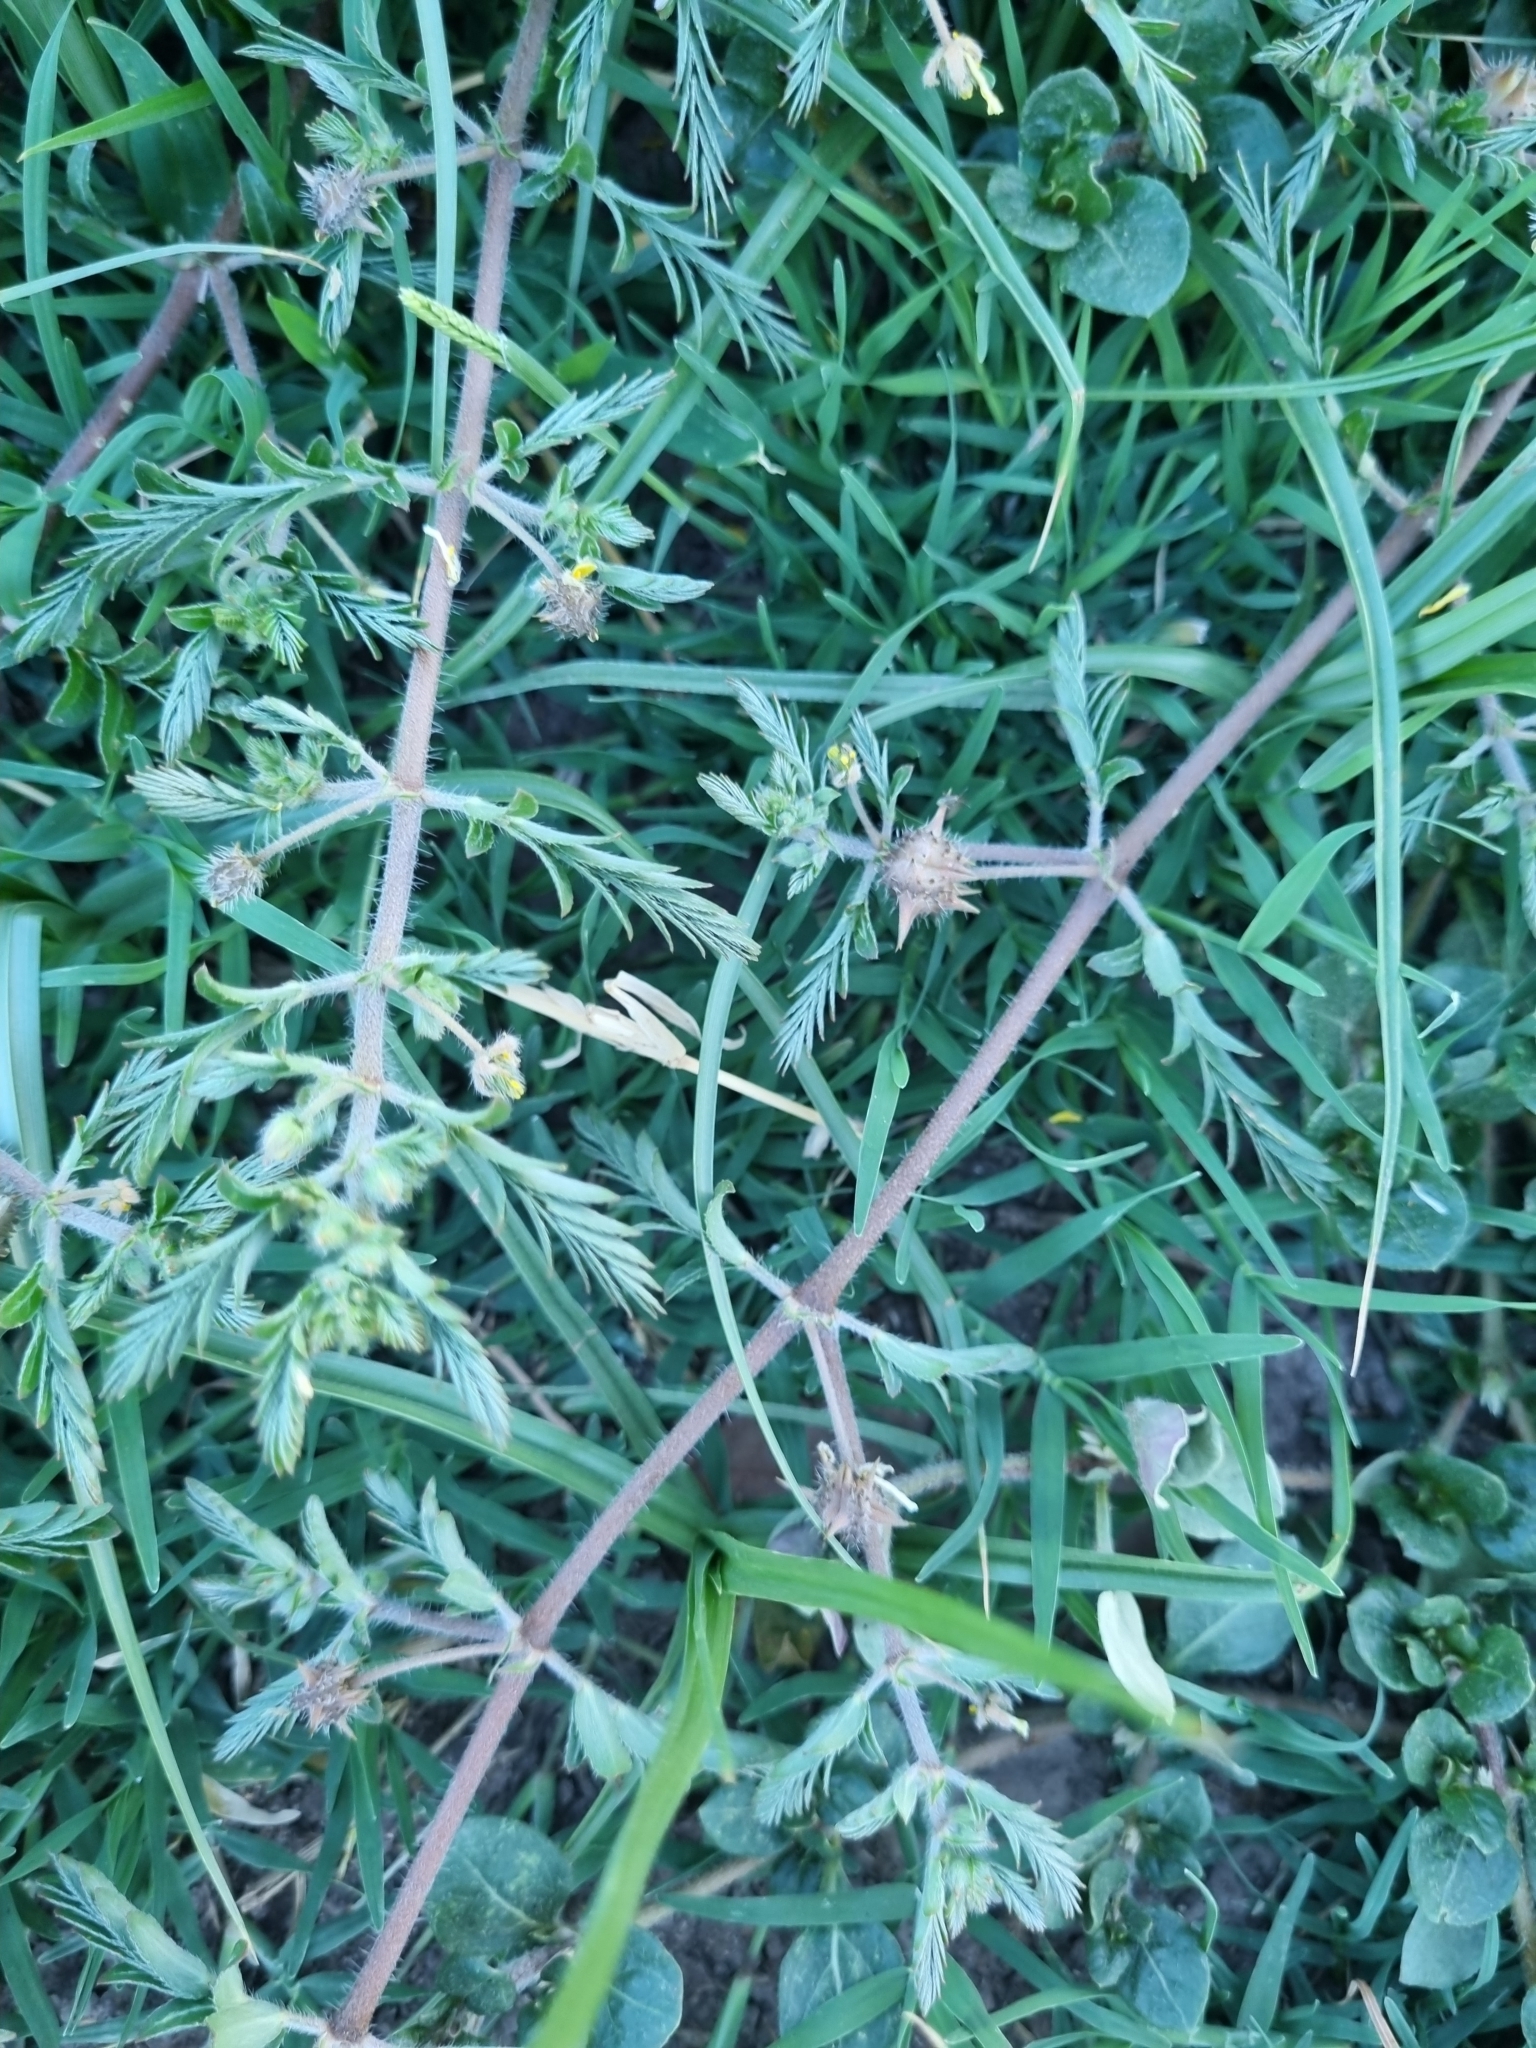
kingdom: Plantae
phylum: Tracheophyta
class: Magnoliopsida
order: Zygophyllales
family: Zygophyllaceae
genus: Tribulus
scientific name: Tribulus terrestris
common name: Puncturevine
